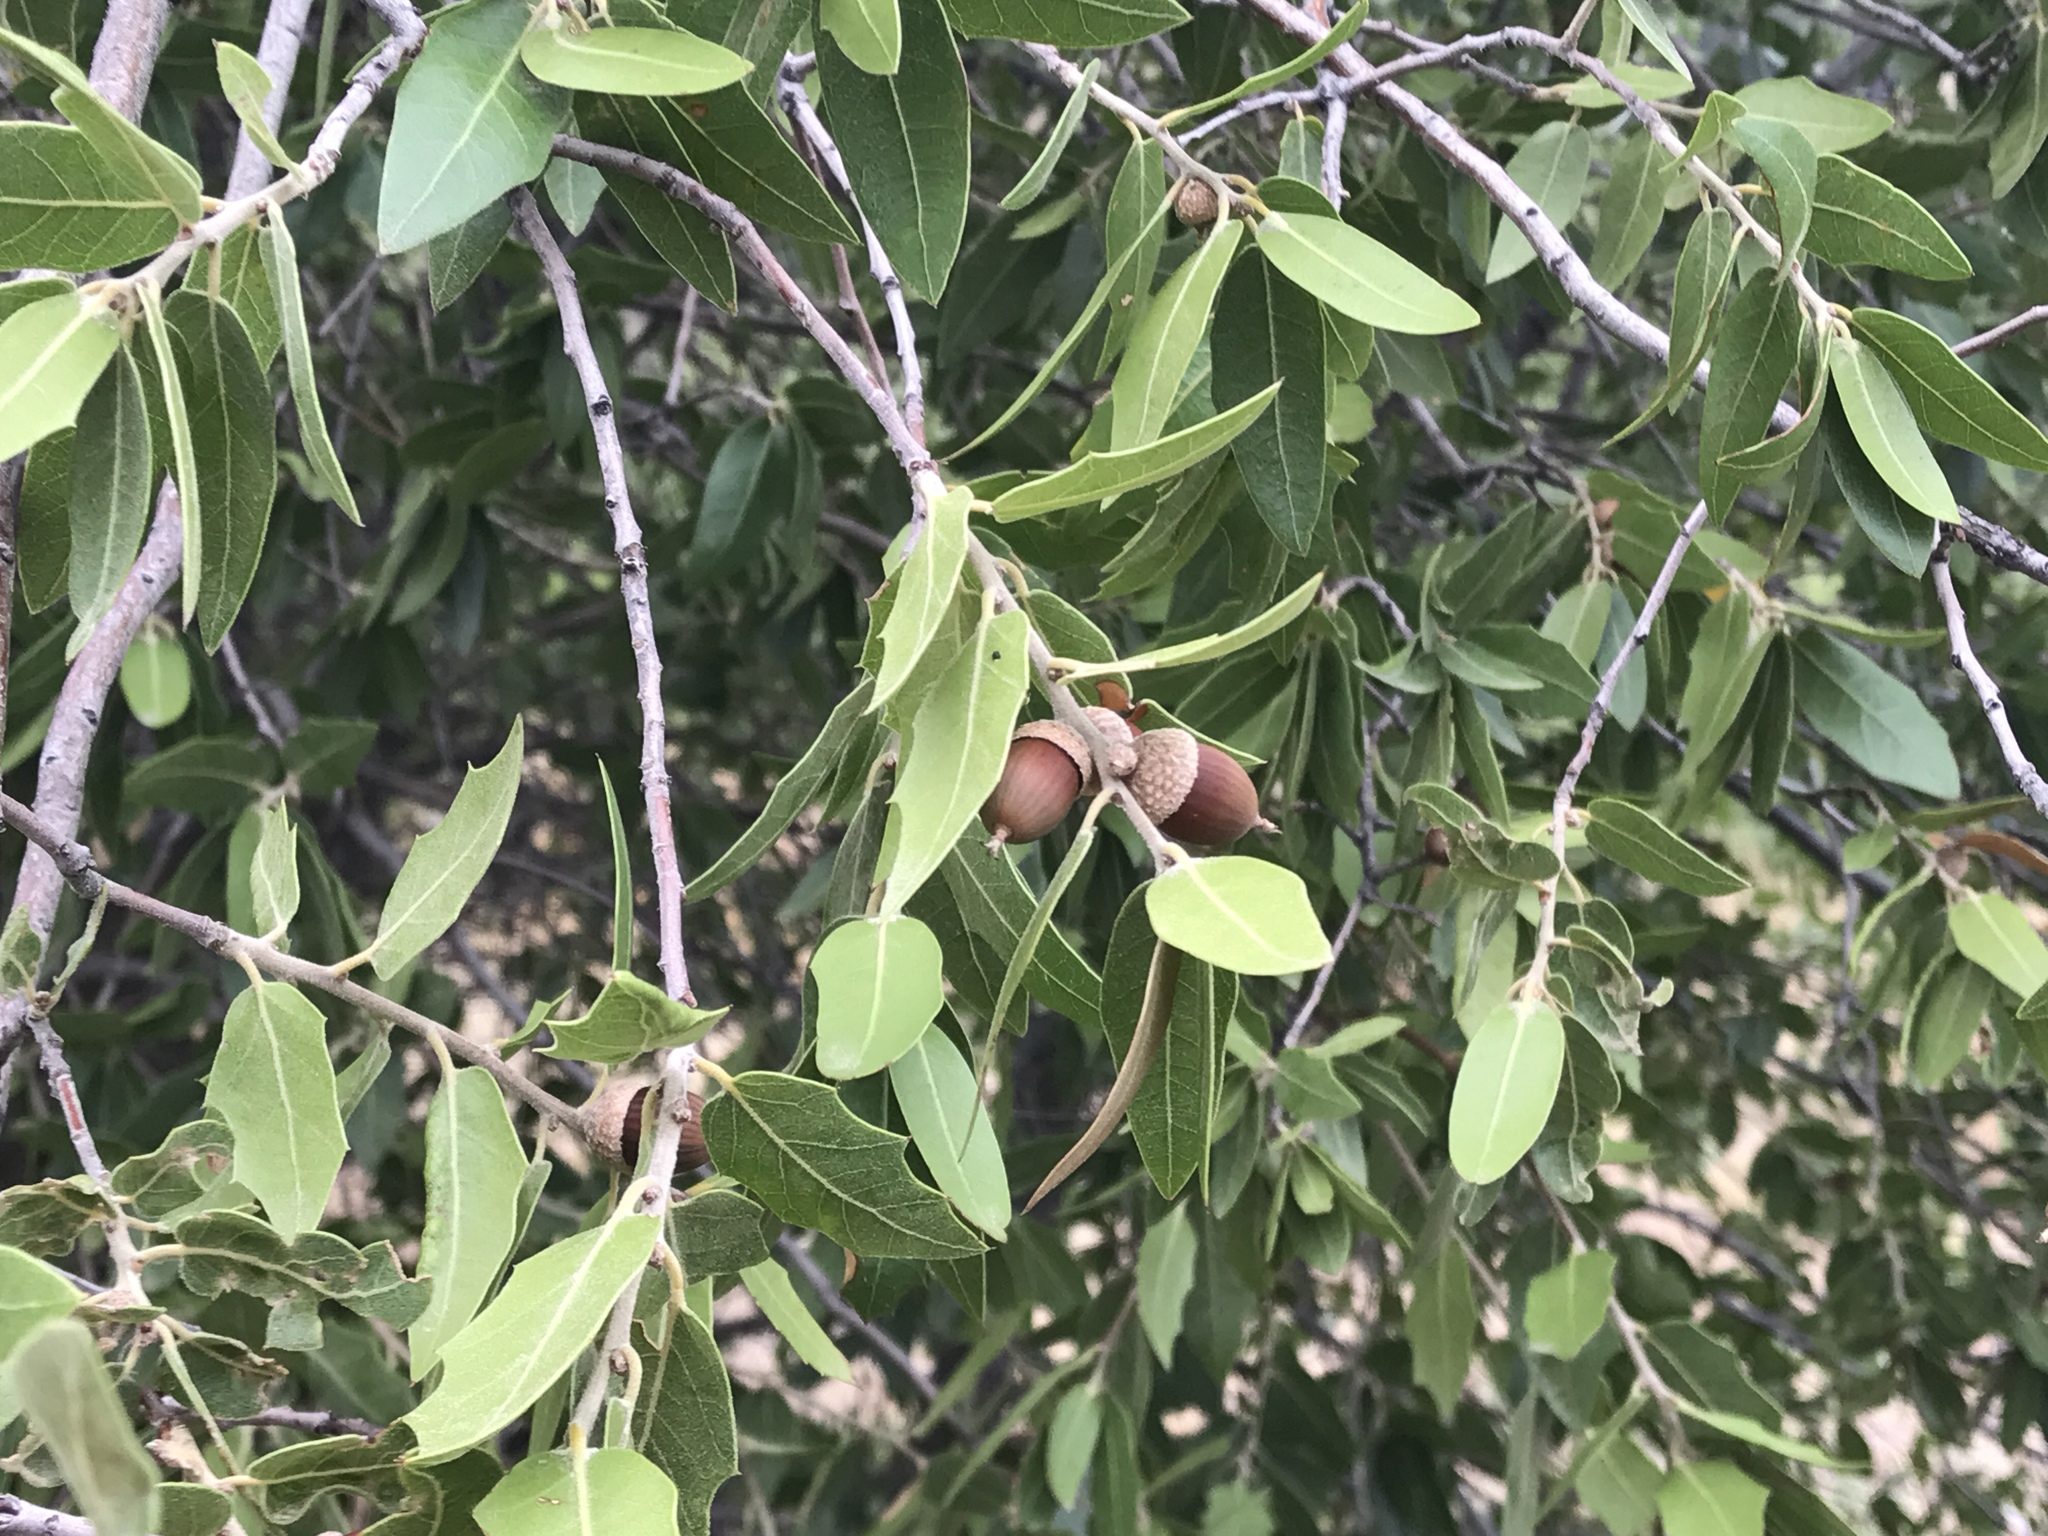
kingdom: Plantae
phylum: Tracheophyta
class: Magnoliopsida
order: Fagales
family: Fagaceae
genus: Quercus
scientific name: Quercus emoryi
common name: Emory oak
